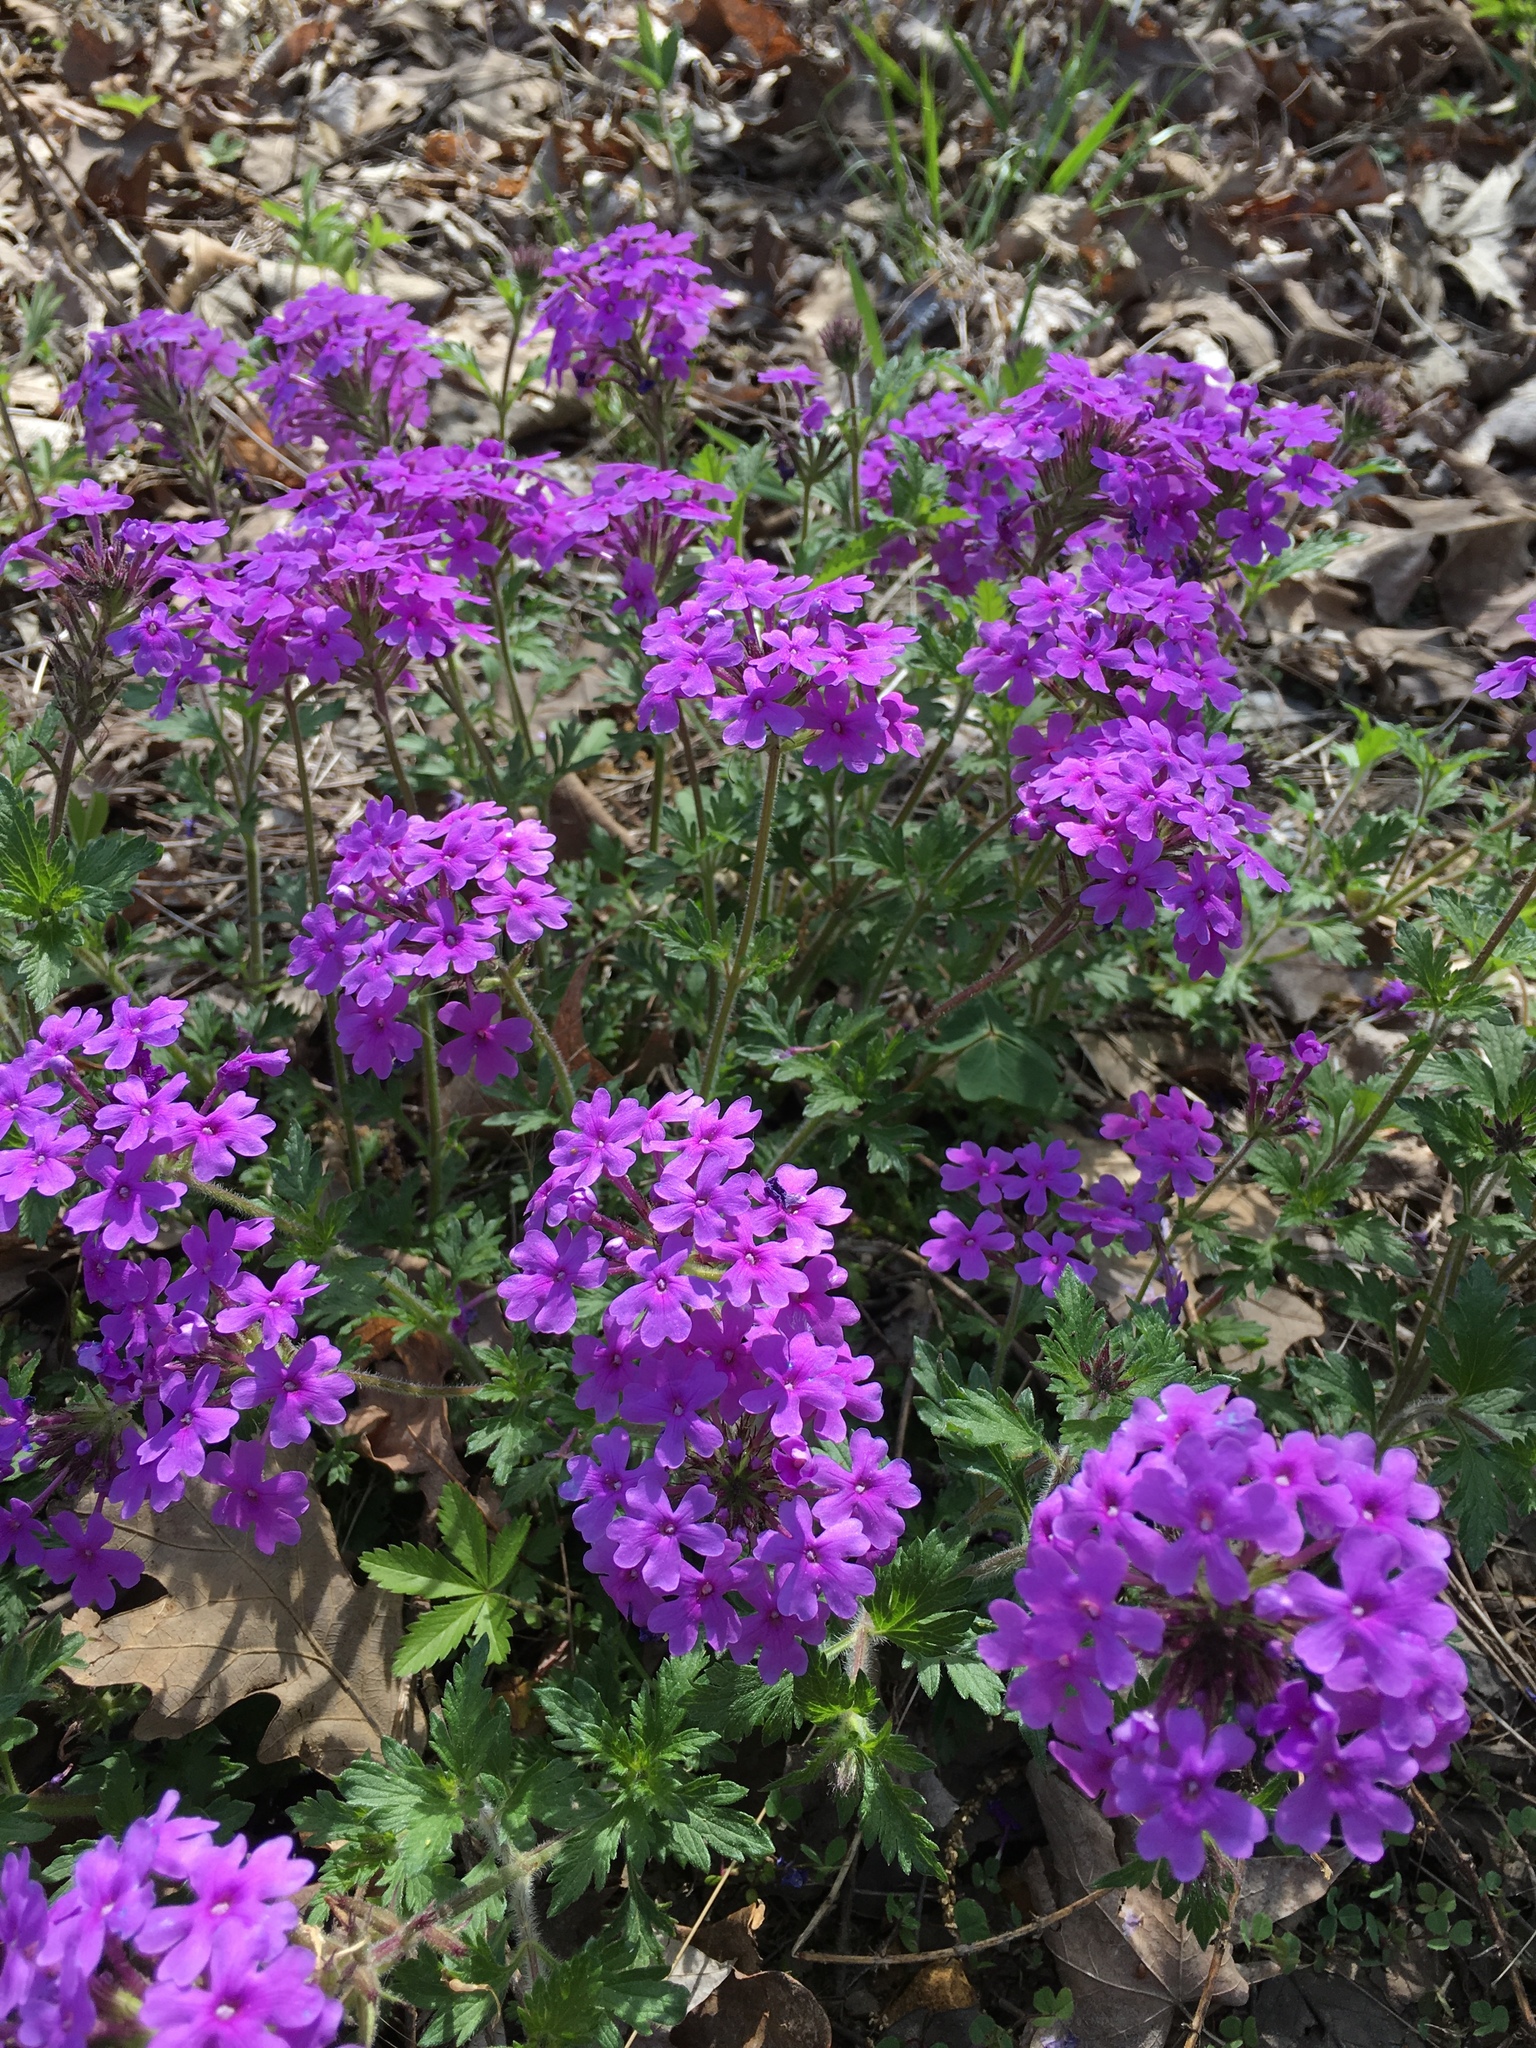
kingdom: Plantae
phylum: Tracheophyta
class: Magnoliopsida
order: Lamiales
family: Verbenaceae
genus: Verbena
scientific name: Verbena canadensis
